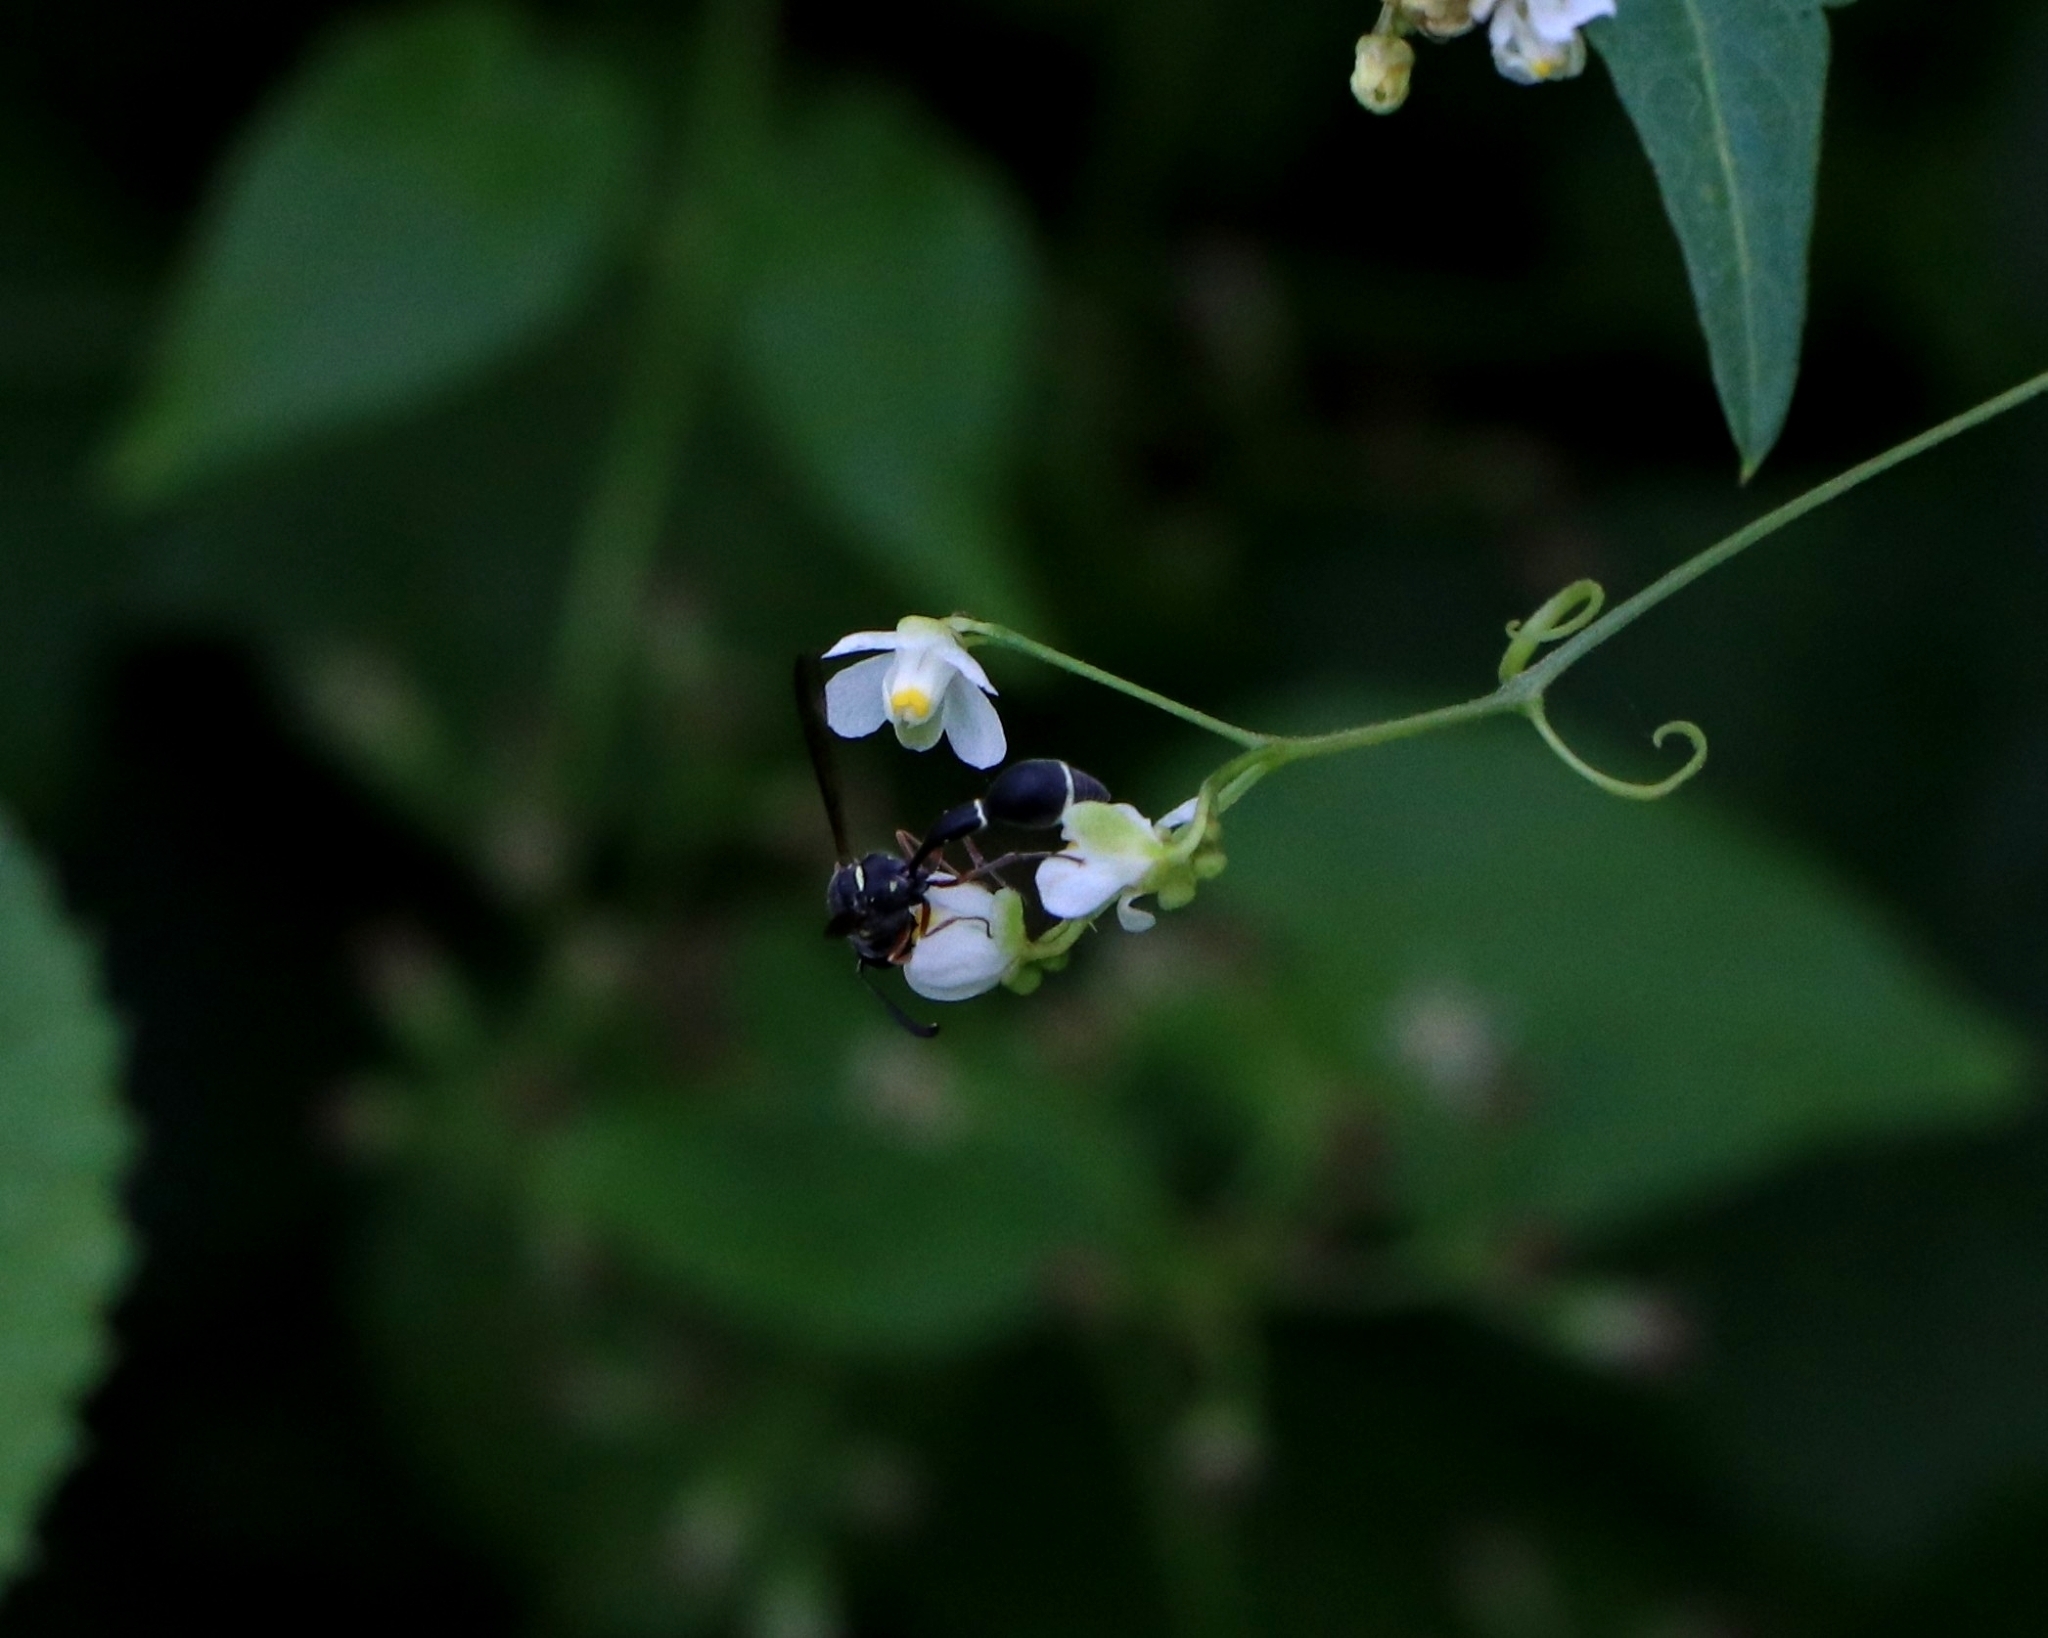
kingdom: Animalia
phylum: Arthropoda
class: Insecta
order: Hymenoptera
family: Vespidae
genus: Eumenes
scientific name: Eumenes macrops
